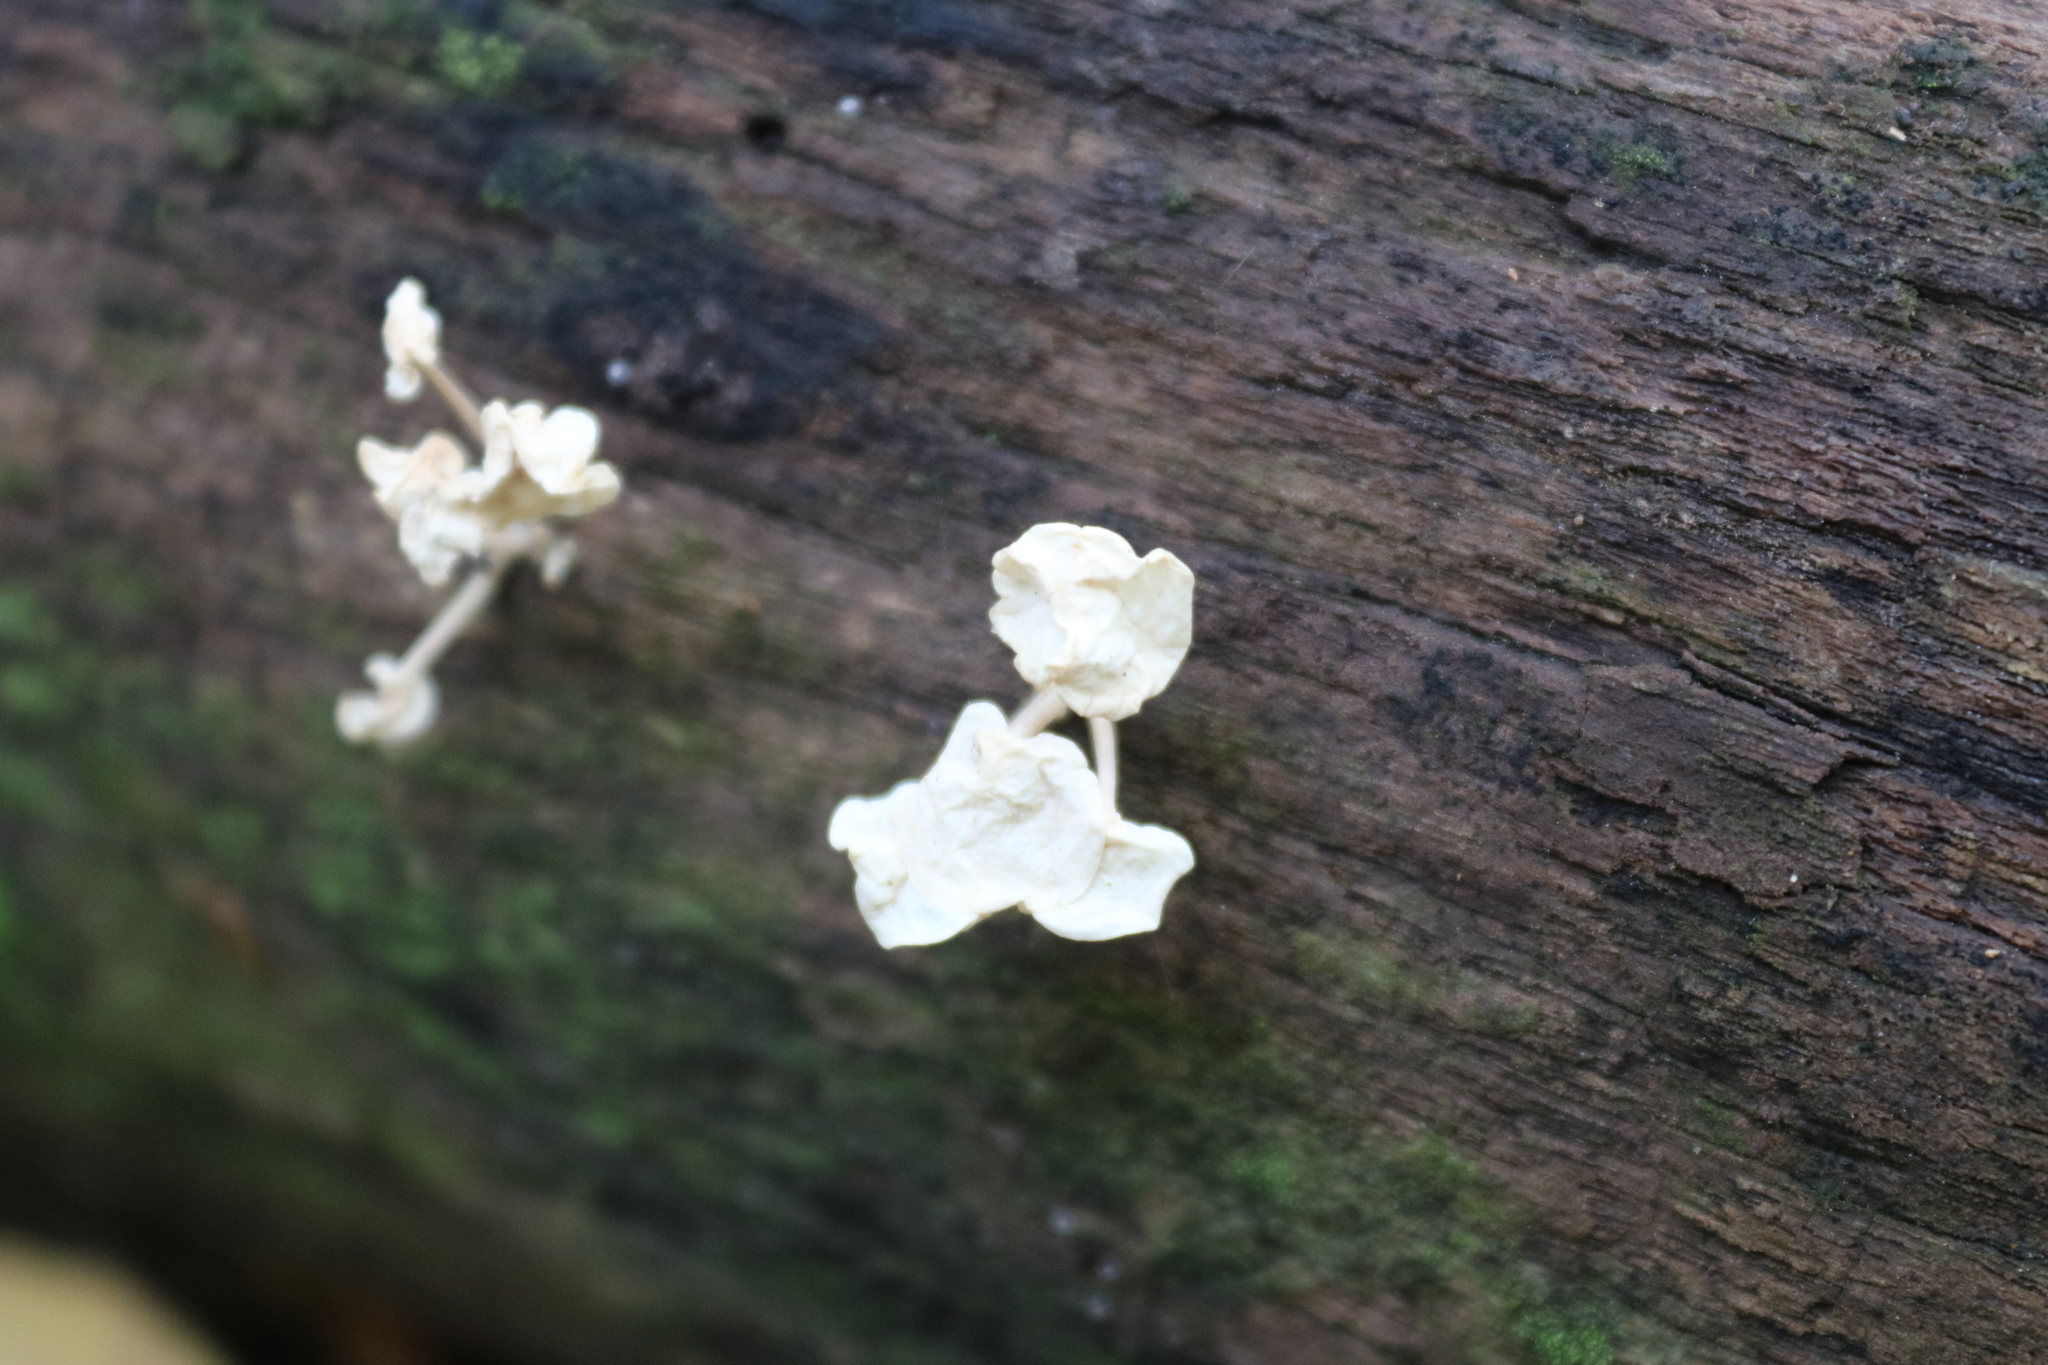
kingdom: Fungi
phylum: Basidiomycota
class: Agaricomycetes
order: Agaricales
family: Physalacriaceae
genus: Physalacria
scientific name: Physalacria inflata
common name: Bladder stalks
